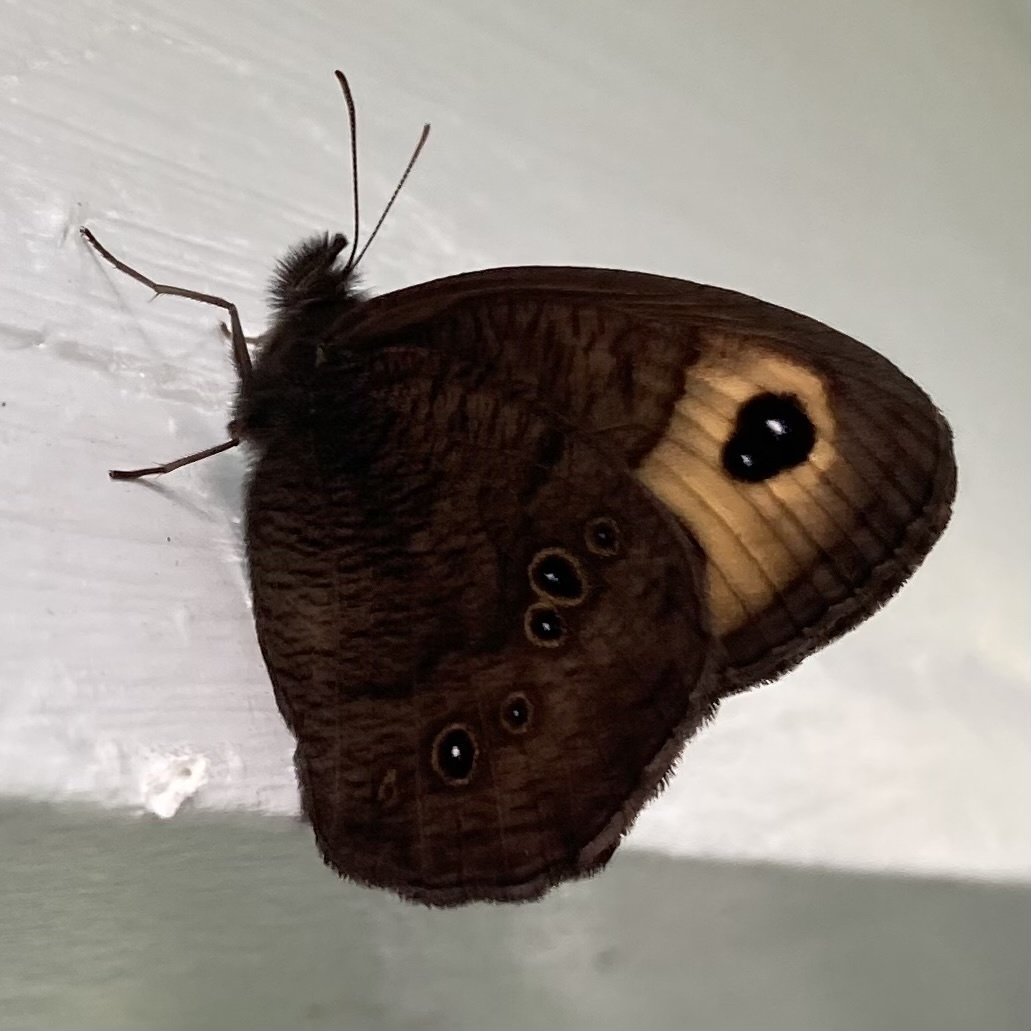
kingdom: Animalia
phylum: Arthropoda
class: Insecta
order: Lepidoptera
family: Nymphalidae
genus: Cercyonis
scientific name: Cercyonis pegala
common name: Common wood-nymph
